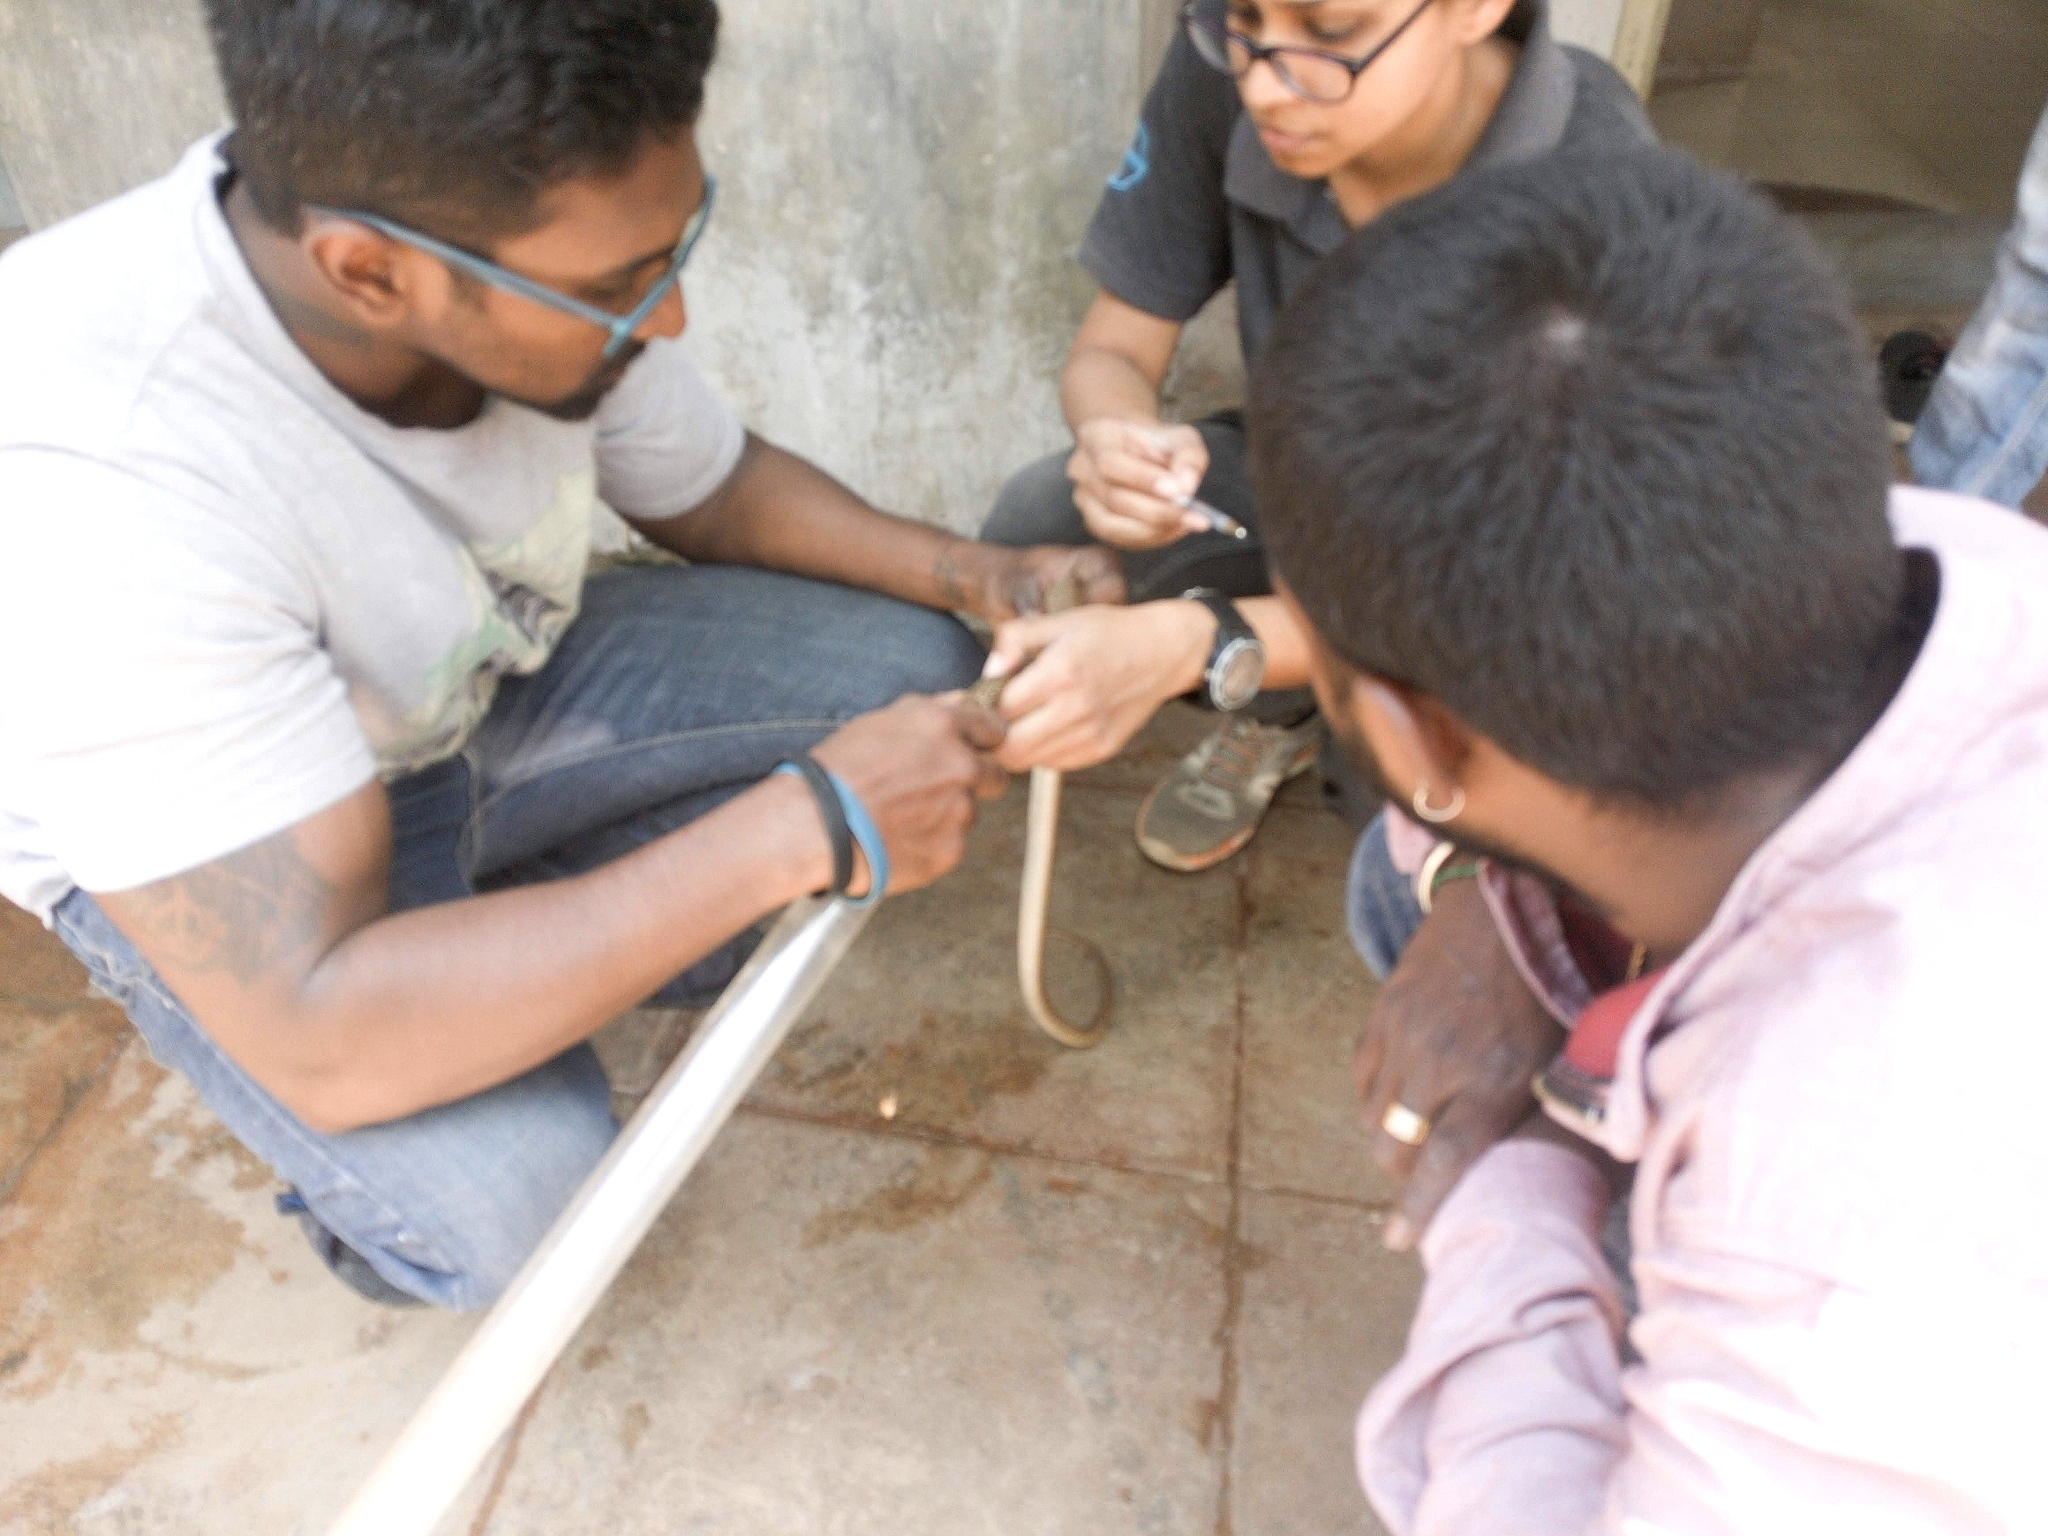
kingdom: Animalia
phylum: Chordata
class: Squamata
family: Elapidae
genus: Naja
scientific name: Naja naja
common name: Indian cobra
